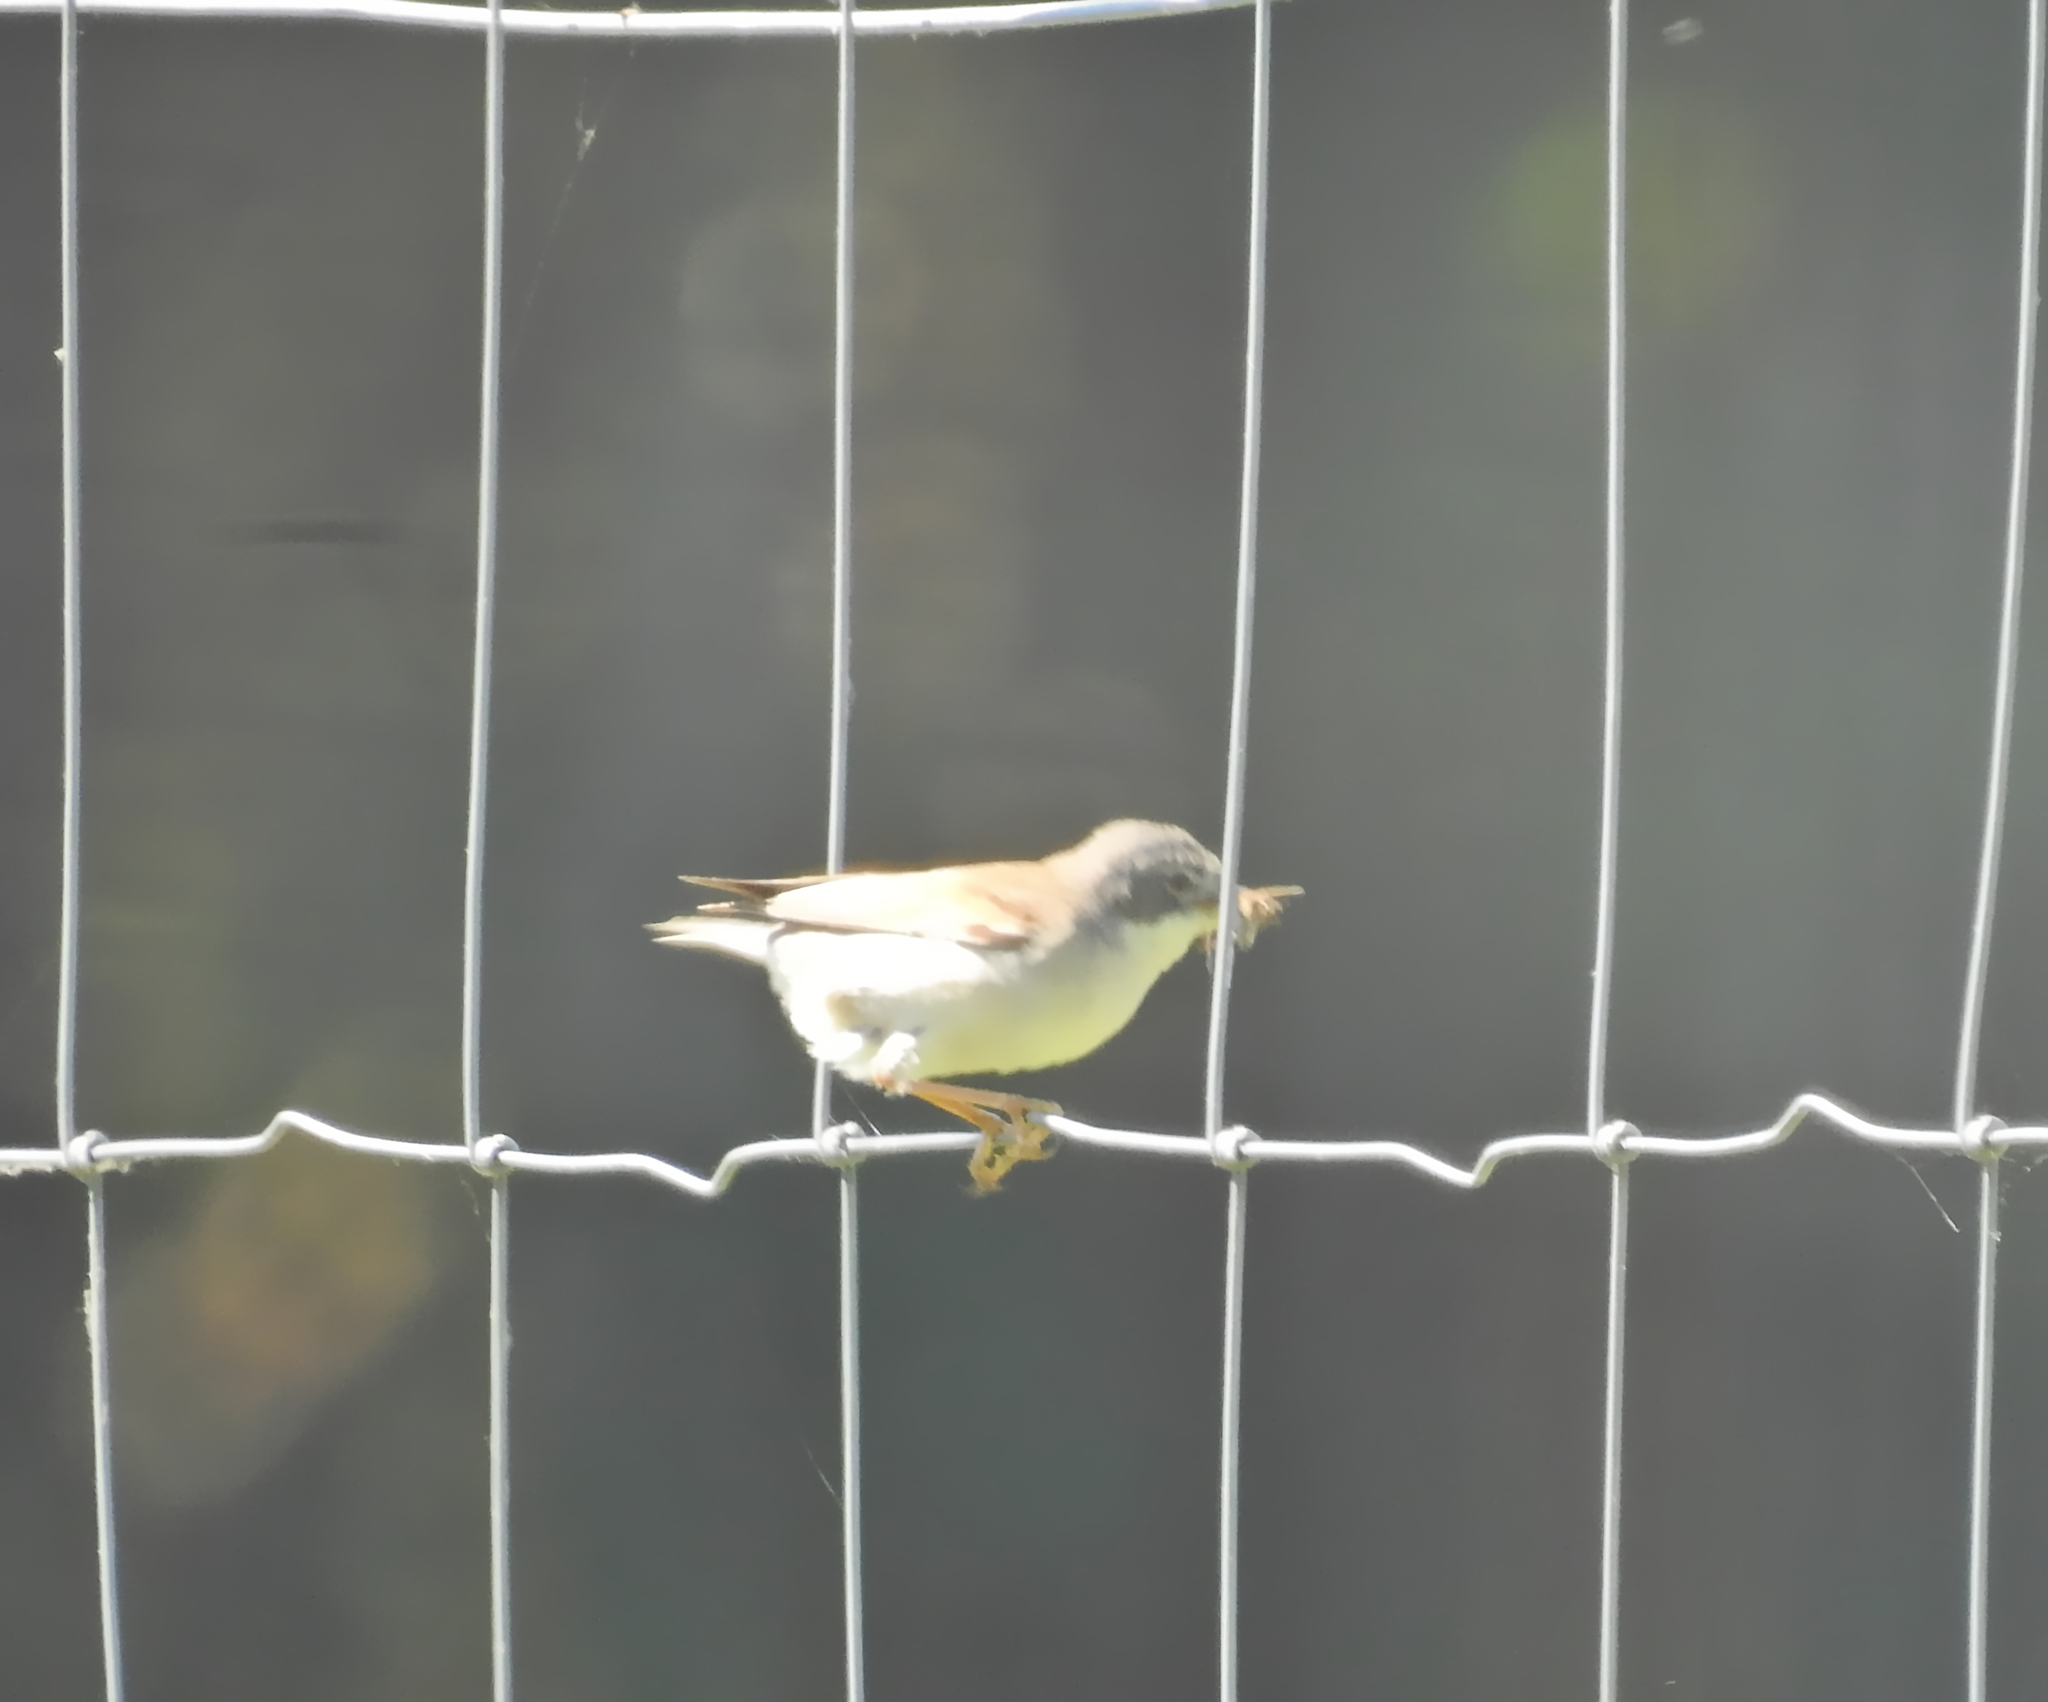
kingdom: Animalia
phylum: Chordata
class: Aves
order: Passeriformes
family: Sylviidae
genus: Sylvia
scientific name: Sylvia communis
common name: Common whitethroat
